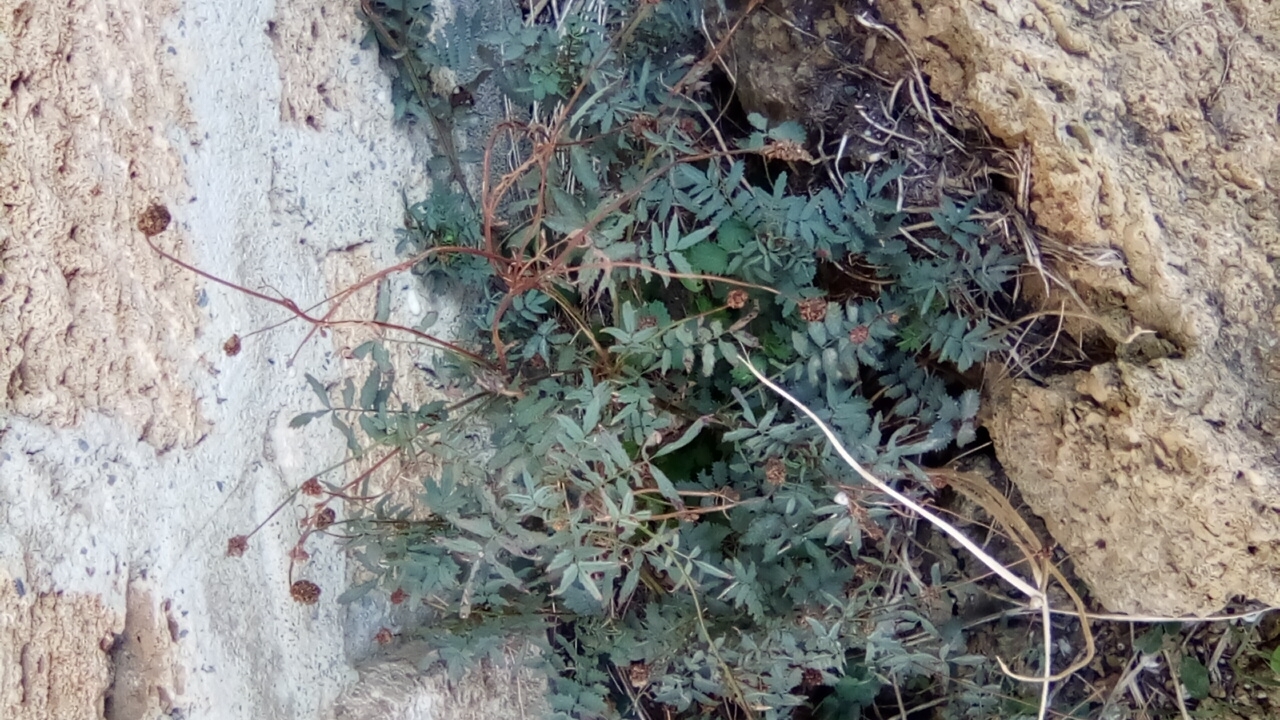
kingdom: Plantae
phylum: Tracheophyta
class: Magnoliopsida
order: Rosales
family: Rosaceae
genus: Poterium
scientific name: Poterium sanguisorba
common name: Salad burnet
